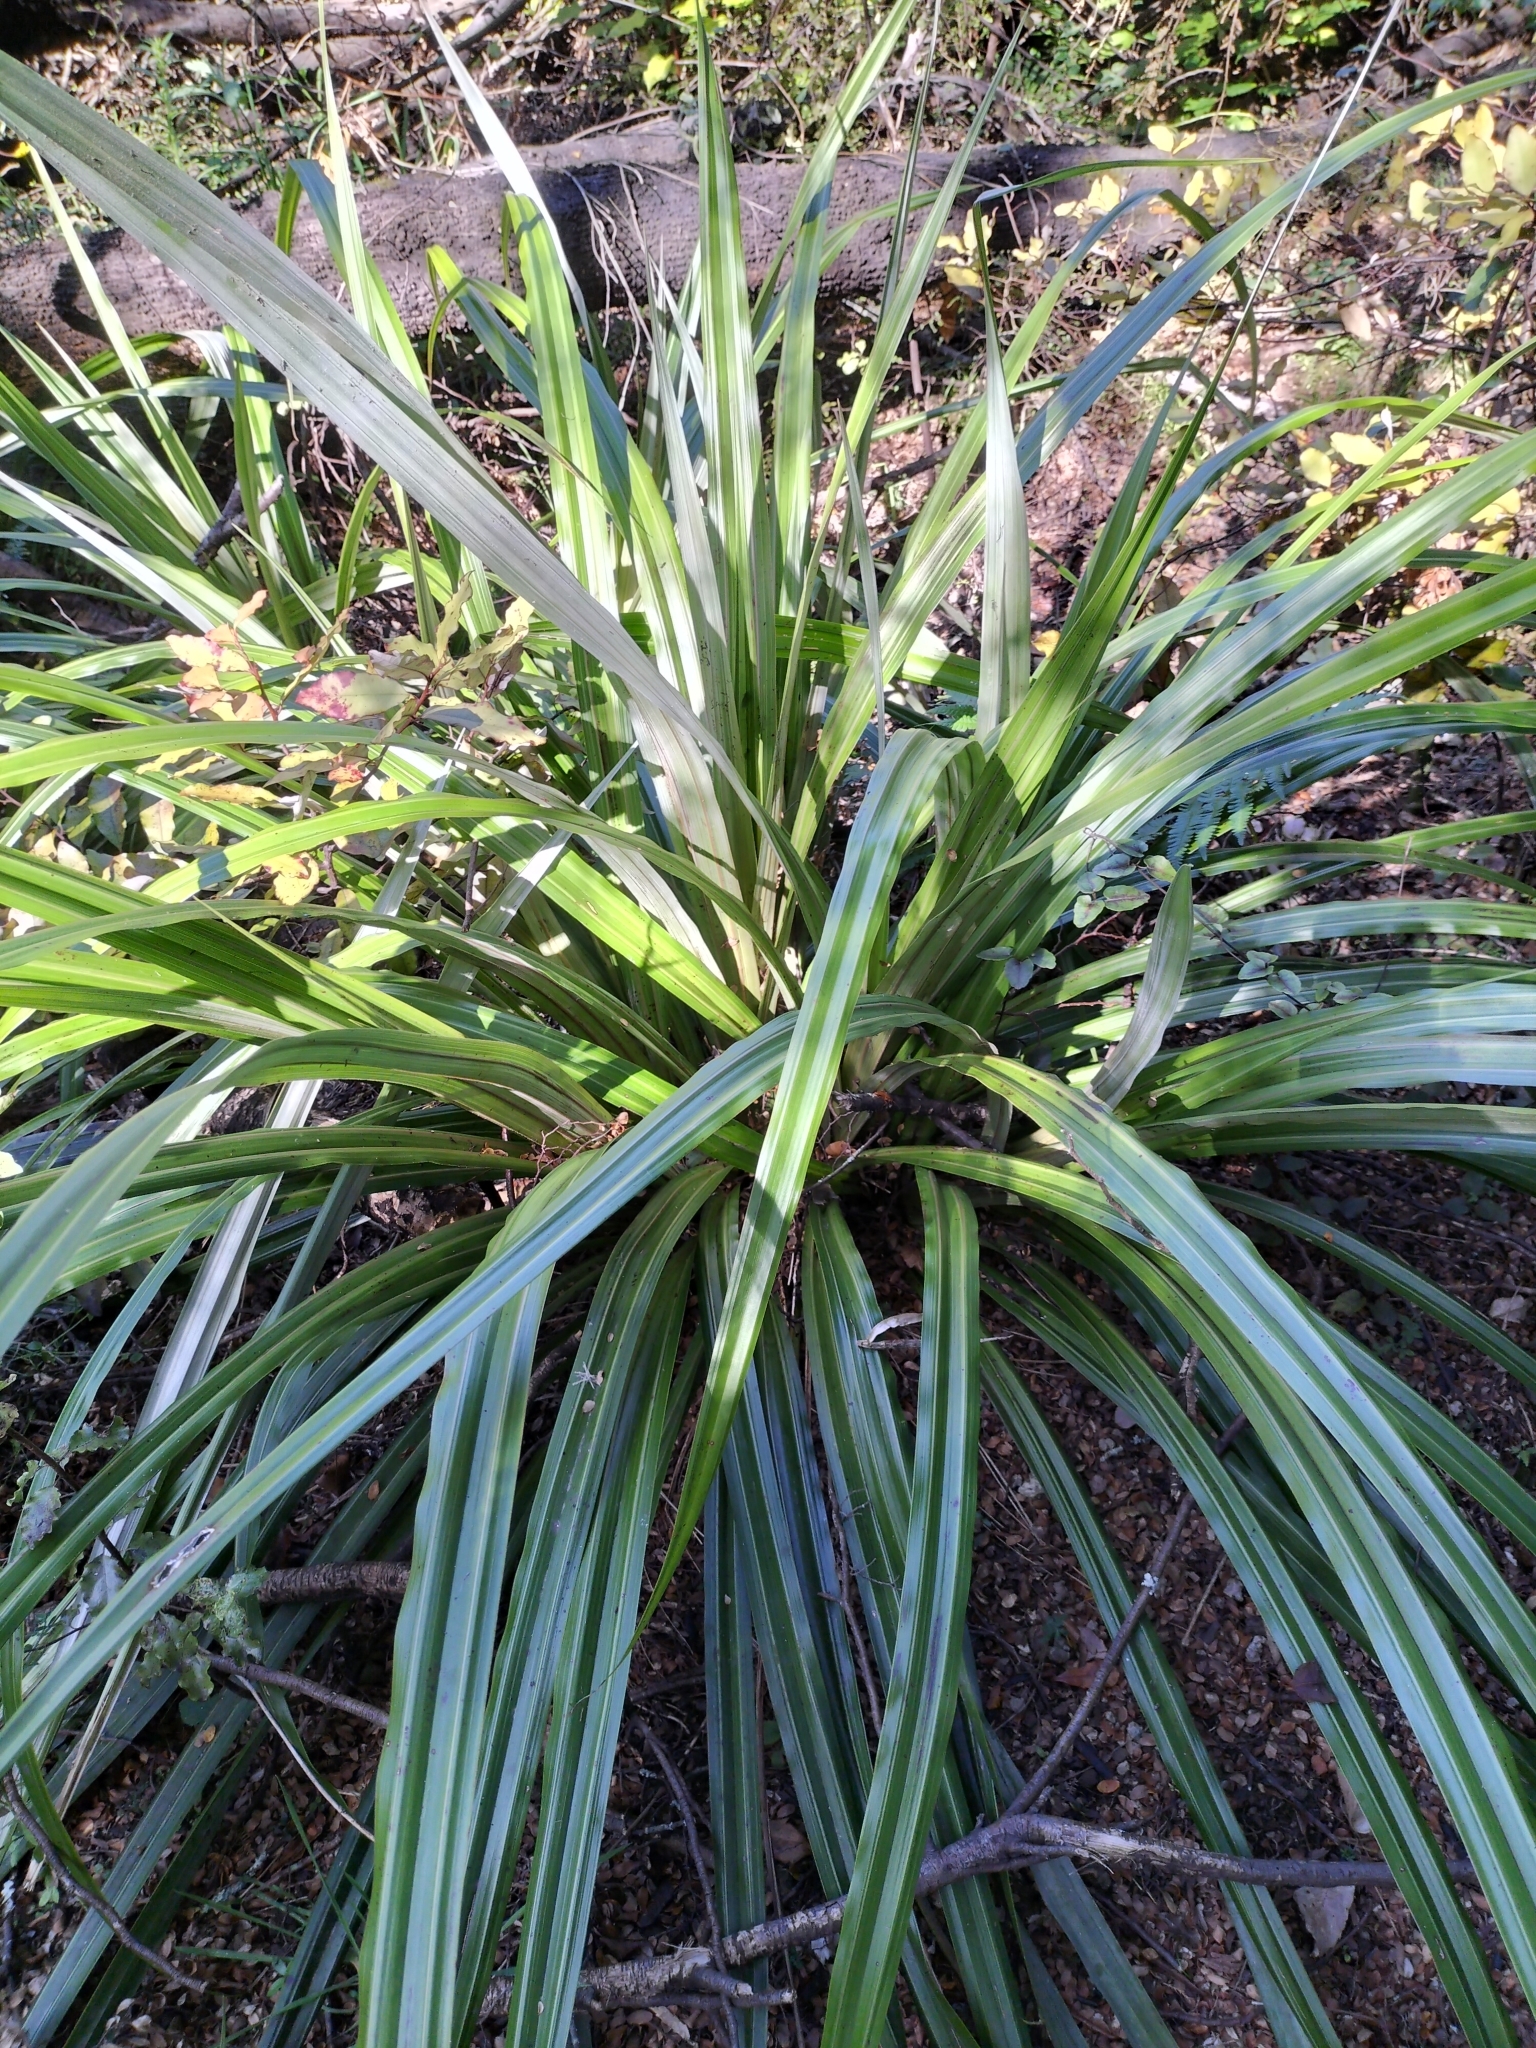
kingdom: Plantae
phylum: Tracheophyta
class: Liliopsida
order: Asparagales
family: Asteliaceae
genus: Astelia
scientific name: Astelia fragrans
